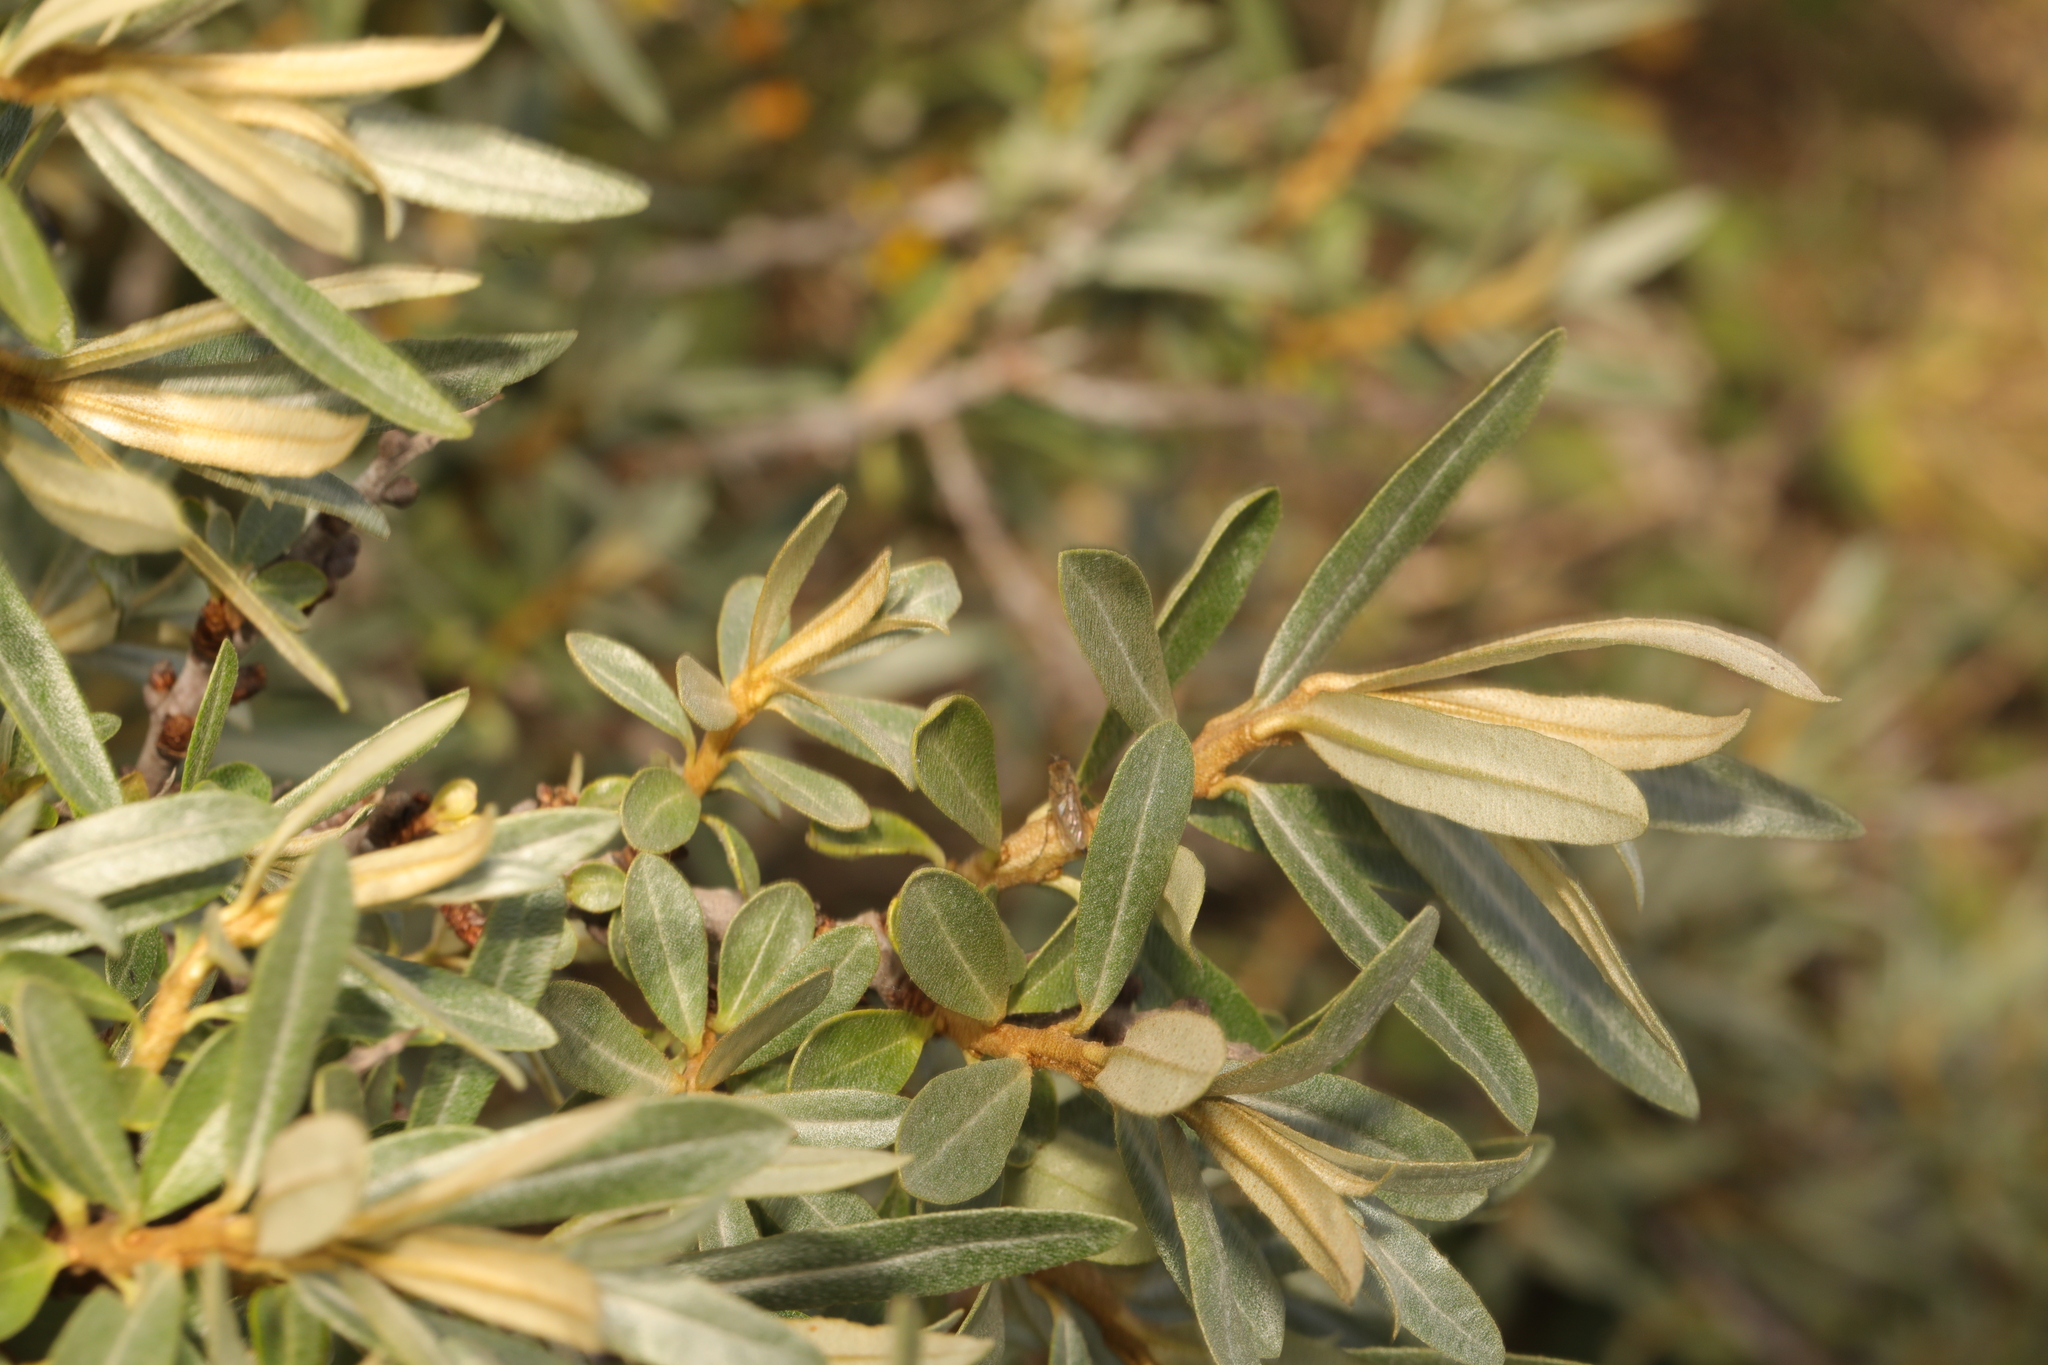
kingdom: Plantae
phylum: Tracheophyta
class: Magnoliopsida
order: Rosales
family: Elaeagnaceae
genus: Hippophae
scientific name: Hippophae rhamnoides
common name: Sea-buckthorn
